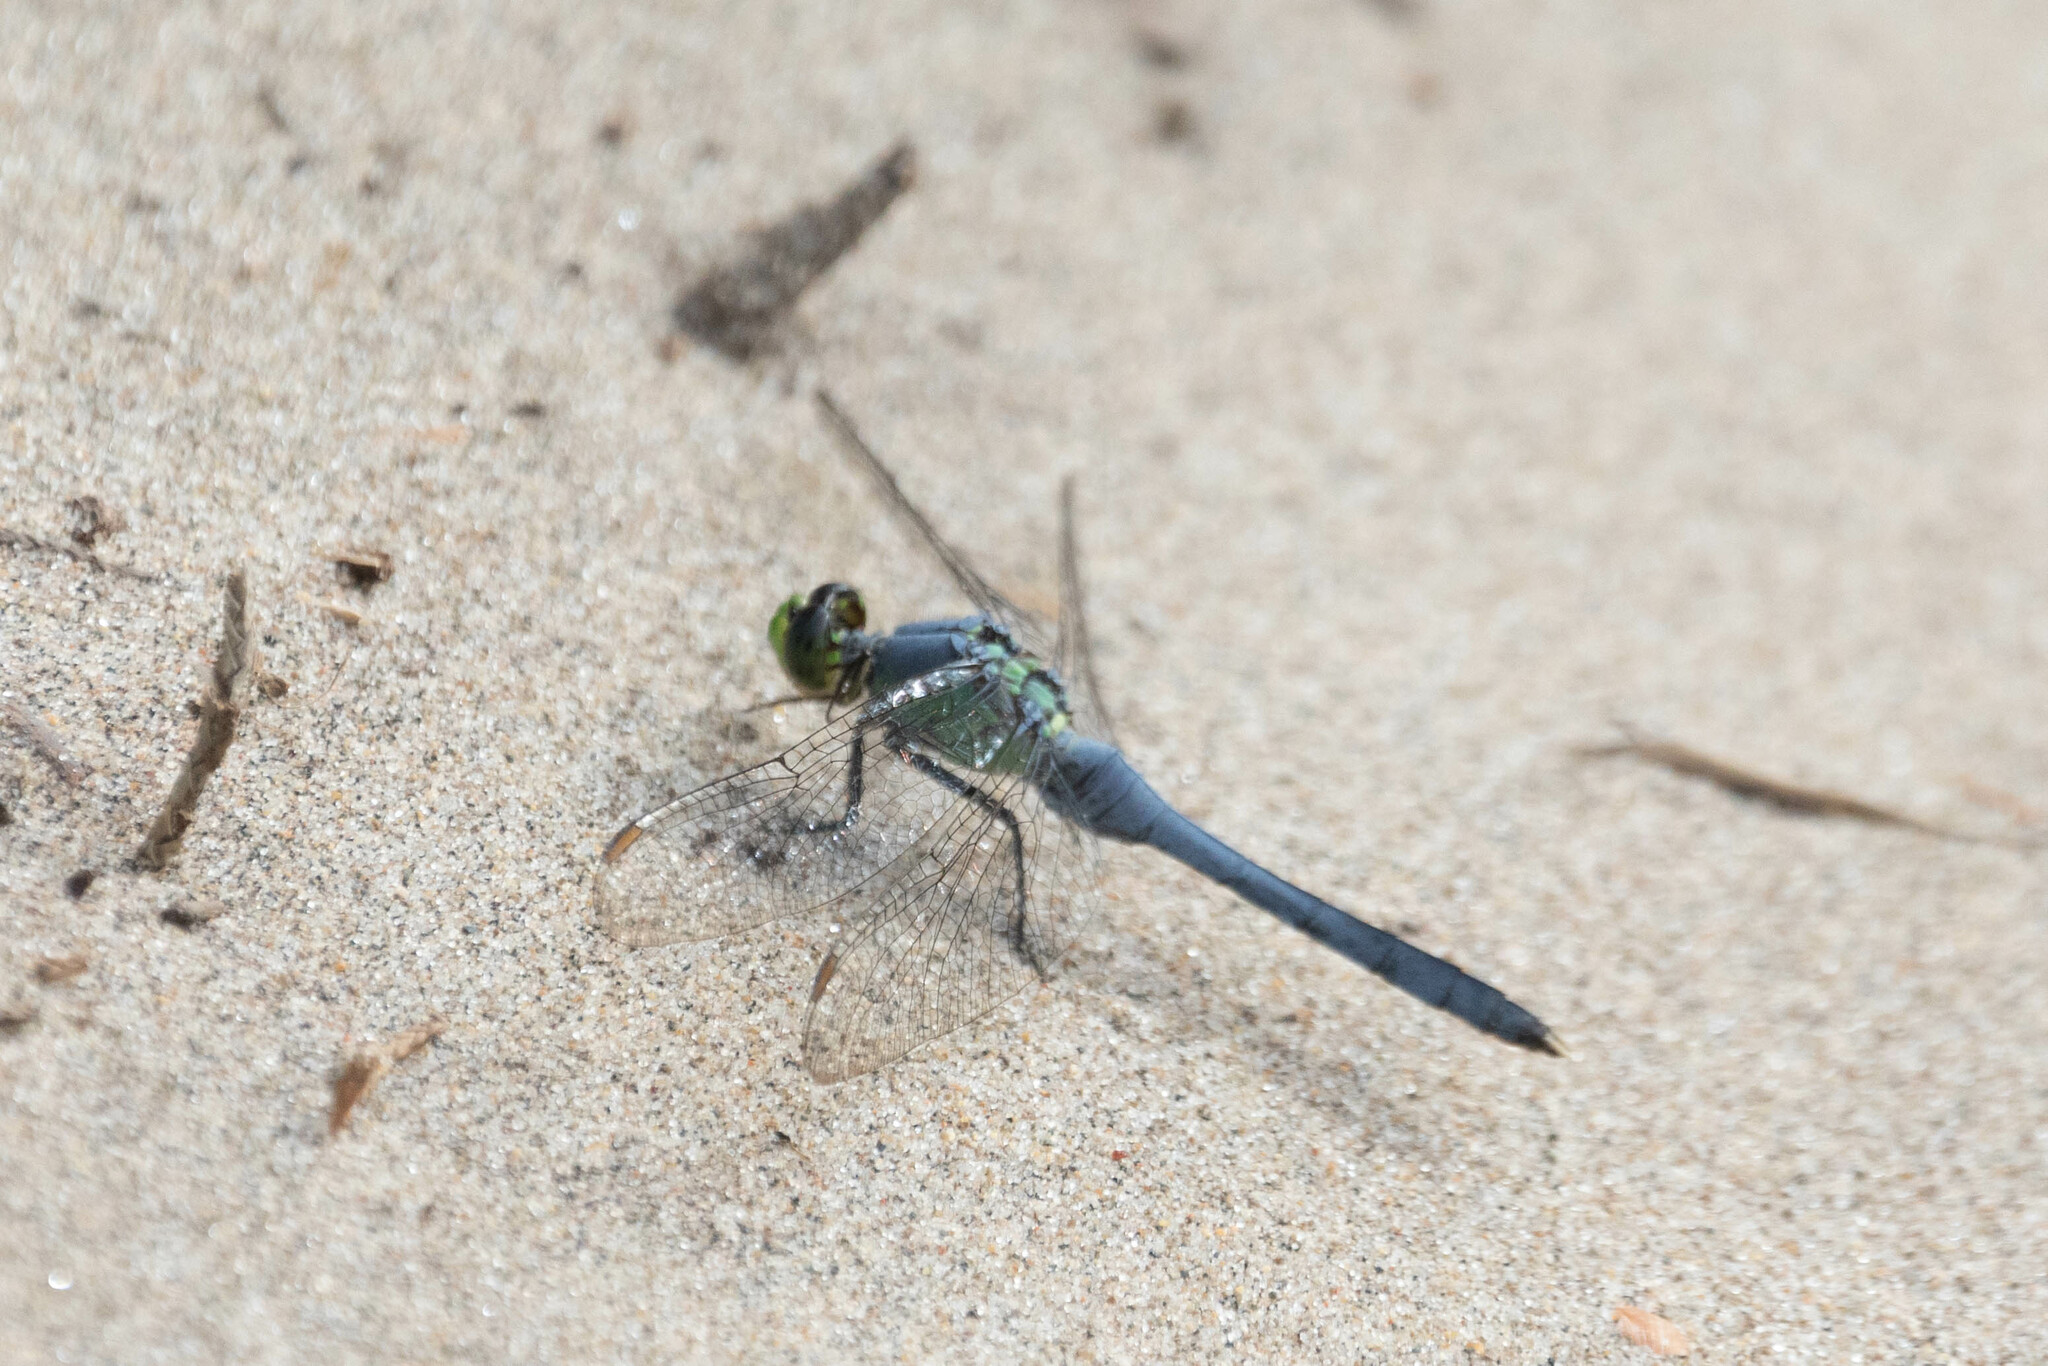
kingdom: Animalia
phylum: Arthropoda
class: Insecta
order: Odonata
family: Libellulidae
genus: Erythemis
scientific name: Erythemis simplicicollis
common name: Eastern pondhawk
